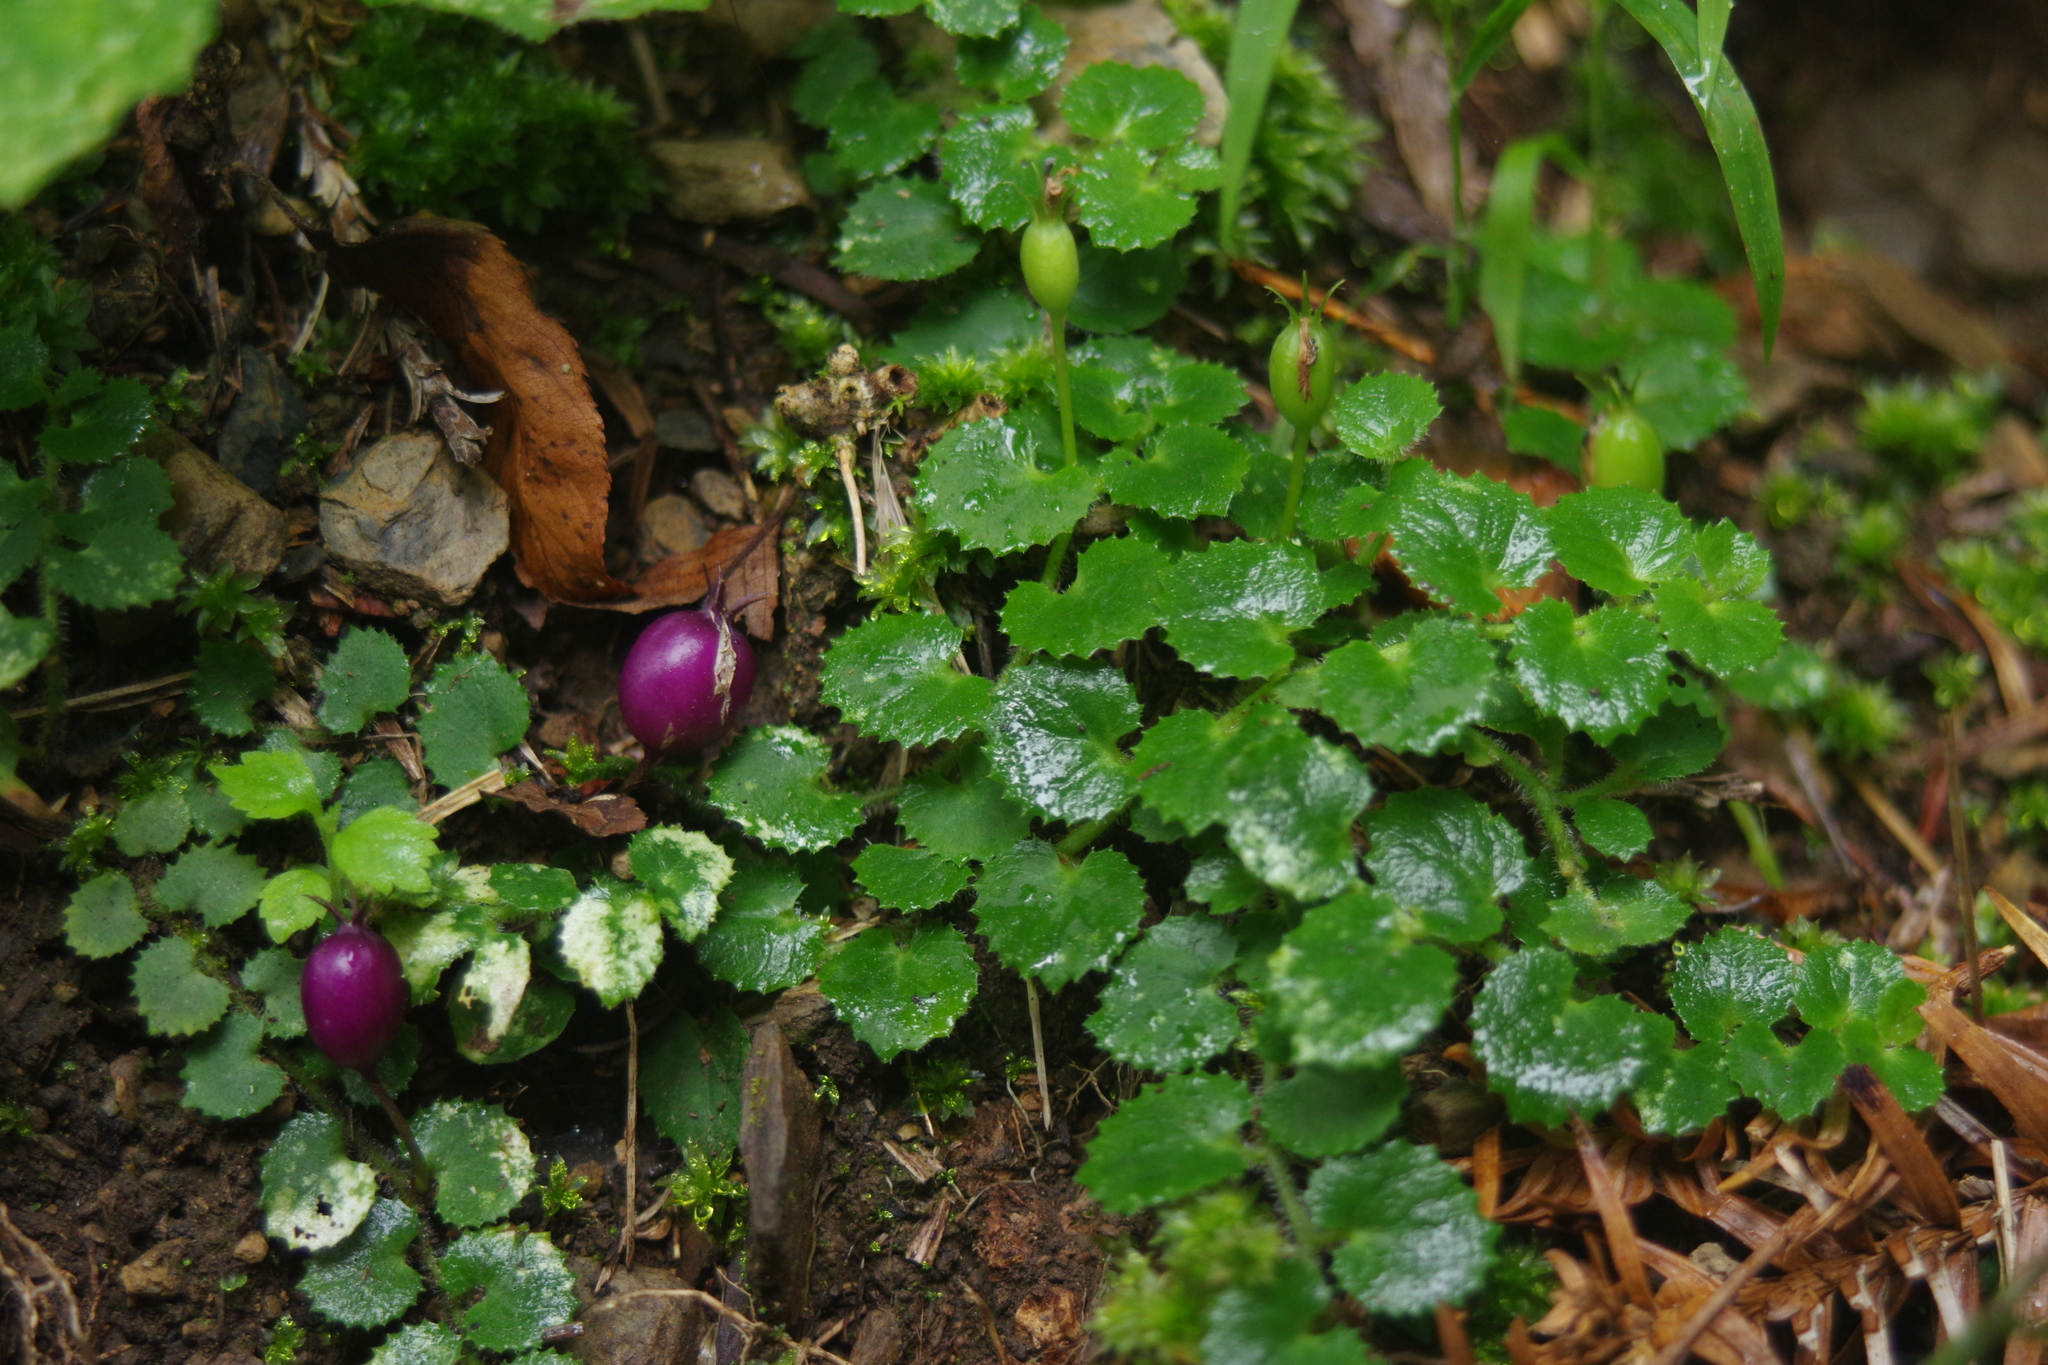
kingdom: Plantae
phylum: Tracheophyta
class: Magnoliopsida
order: Asterales
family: Campanulaceae
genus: Lobelia
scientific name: Lobelia nummularia
